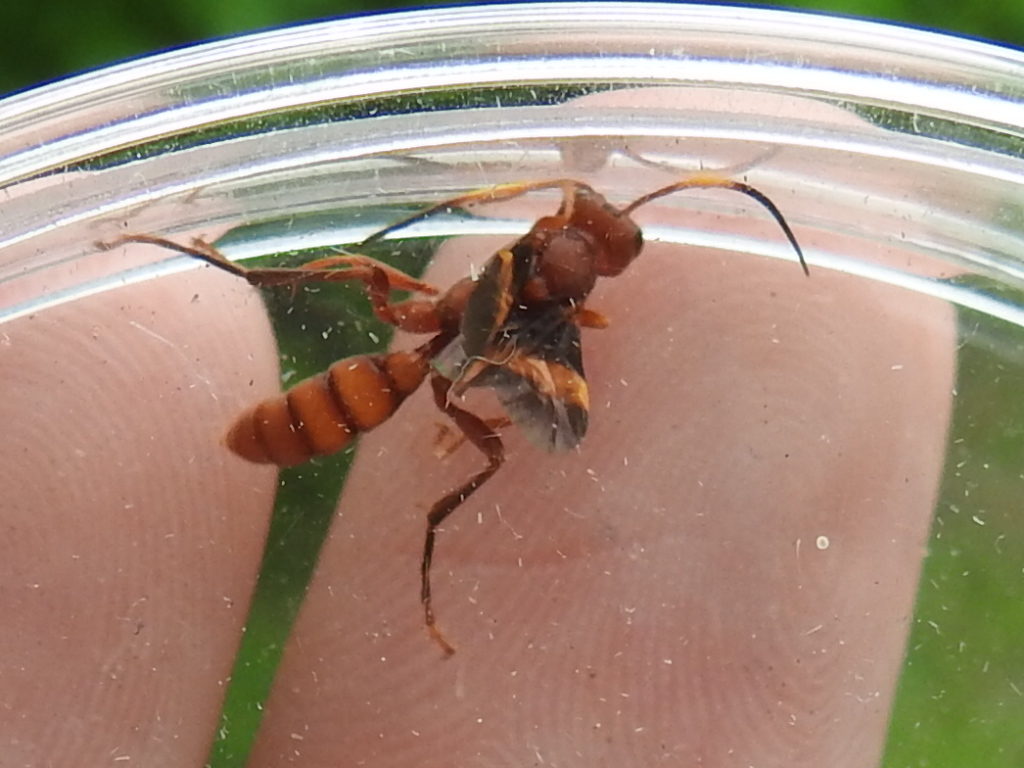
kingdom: Animalia
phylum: Arthropoda
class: Insecta
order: Hymenoptera
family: Ichneumonidae
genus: Trogomorpha
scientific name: Trogomorpha arrogans
